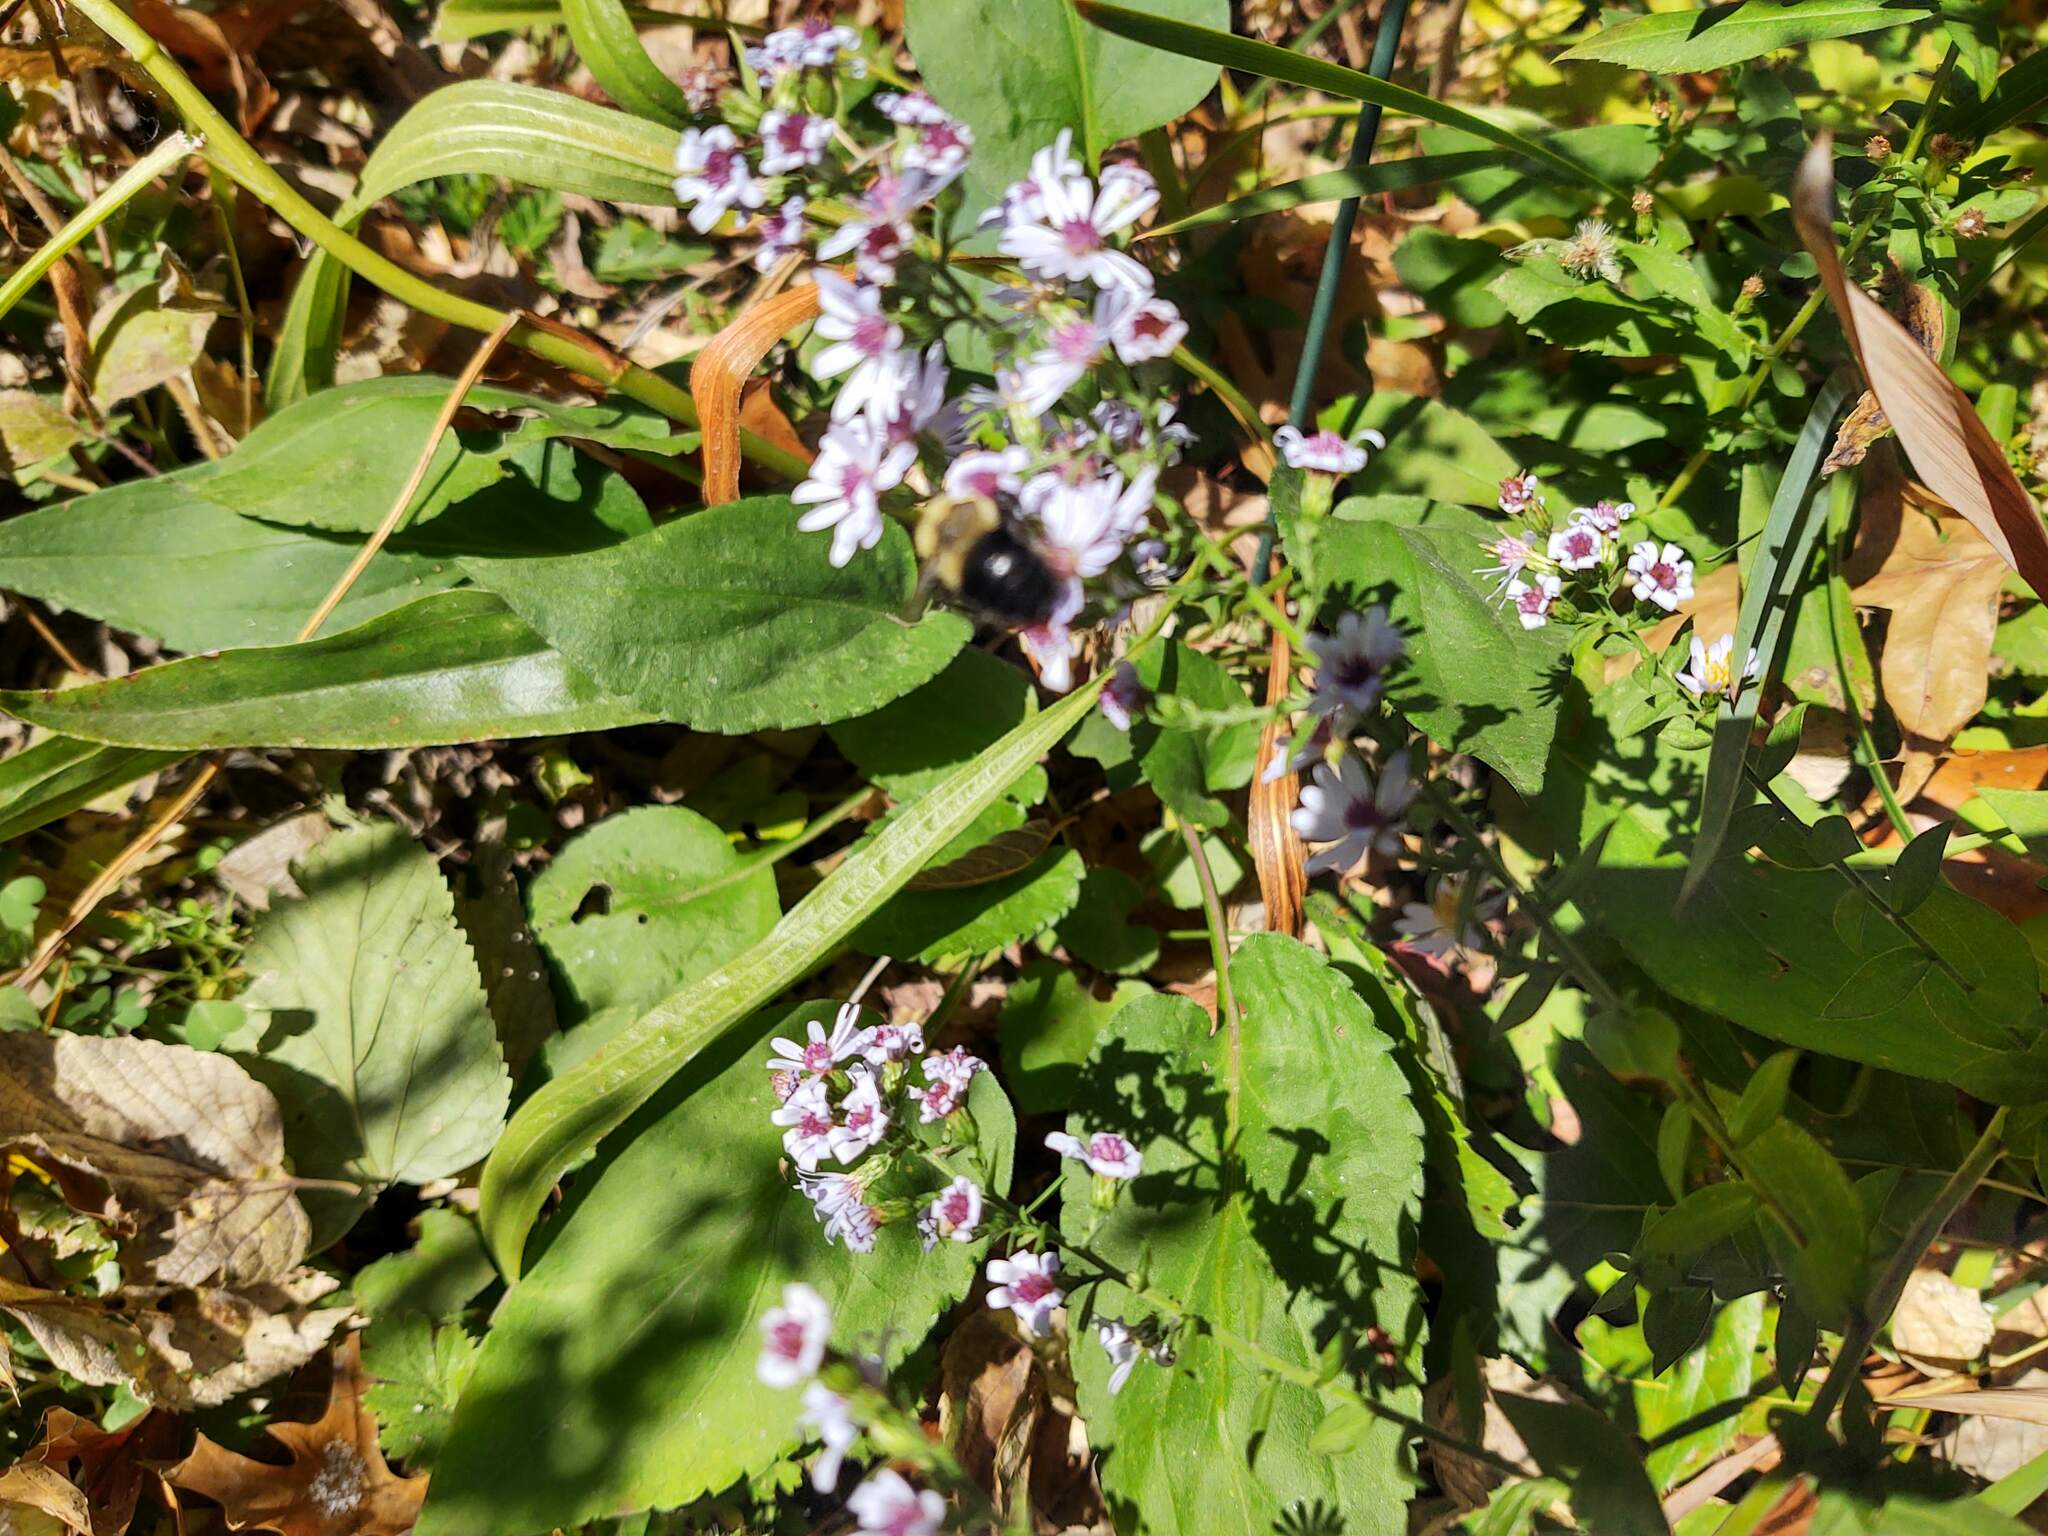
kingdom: Animalia
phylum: Arthropoda
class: Insecta
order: Hymenoptera
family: Apidae
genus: Bombus
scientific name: Bombus impatiens
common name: Common eastern bumble bee
